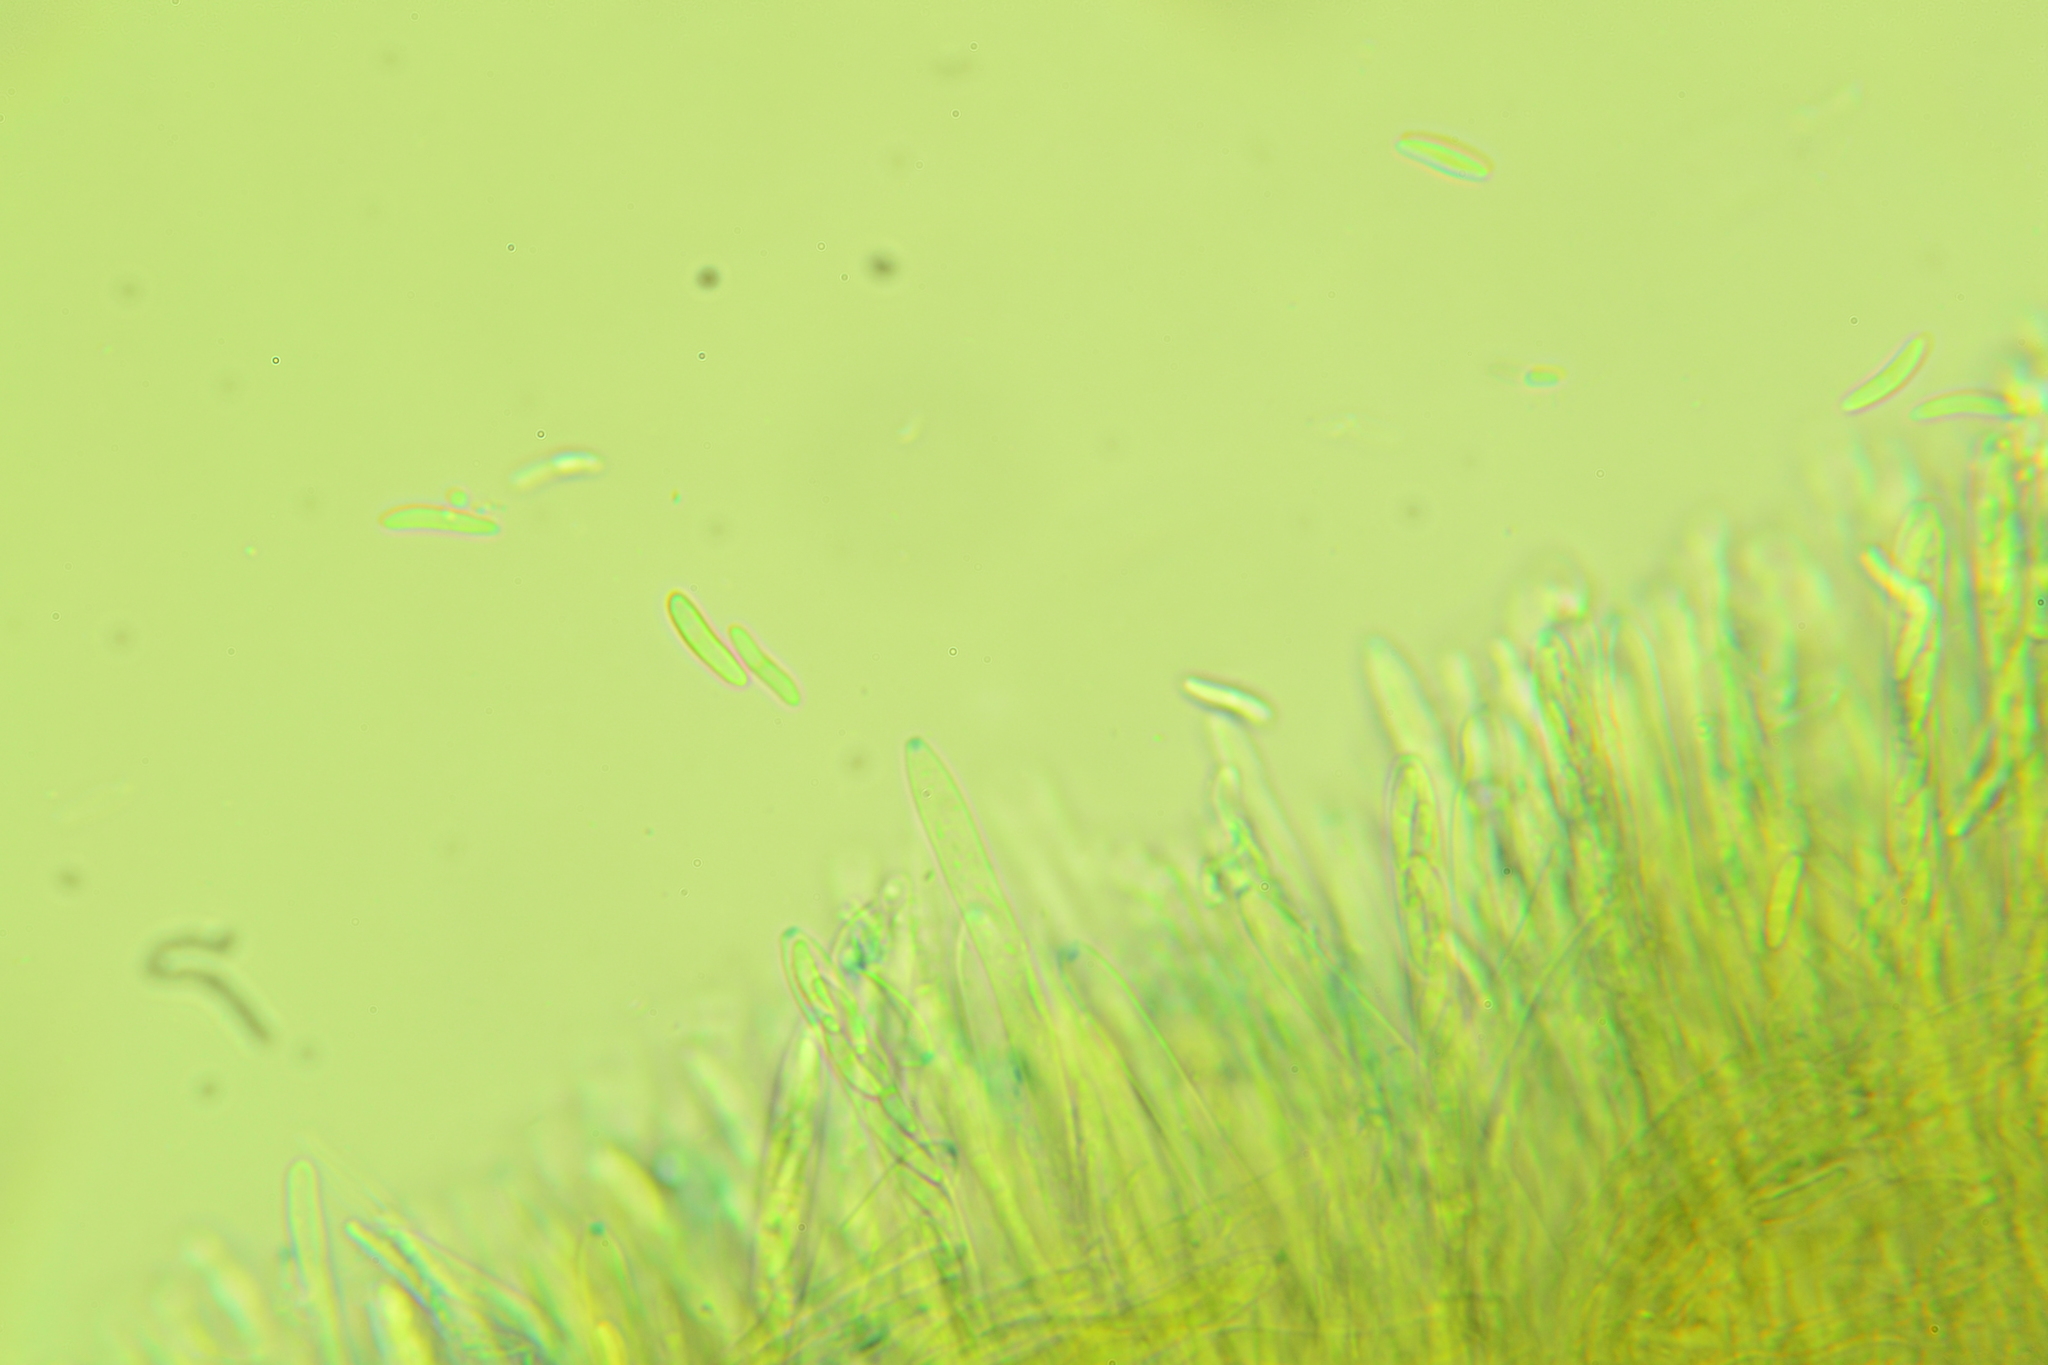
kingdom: Fungi
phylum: Ascomycota
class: Leotiomycetes
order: Helotiales
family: Cenangiaceae
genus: Chlorencoelia
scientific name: Chlorencoelia versiformis
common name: Flea's ear
